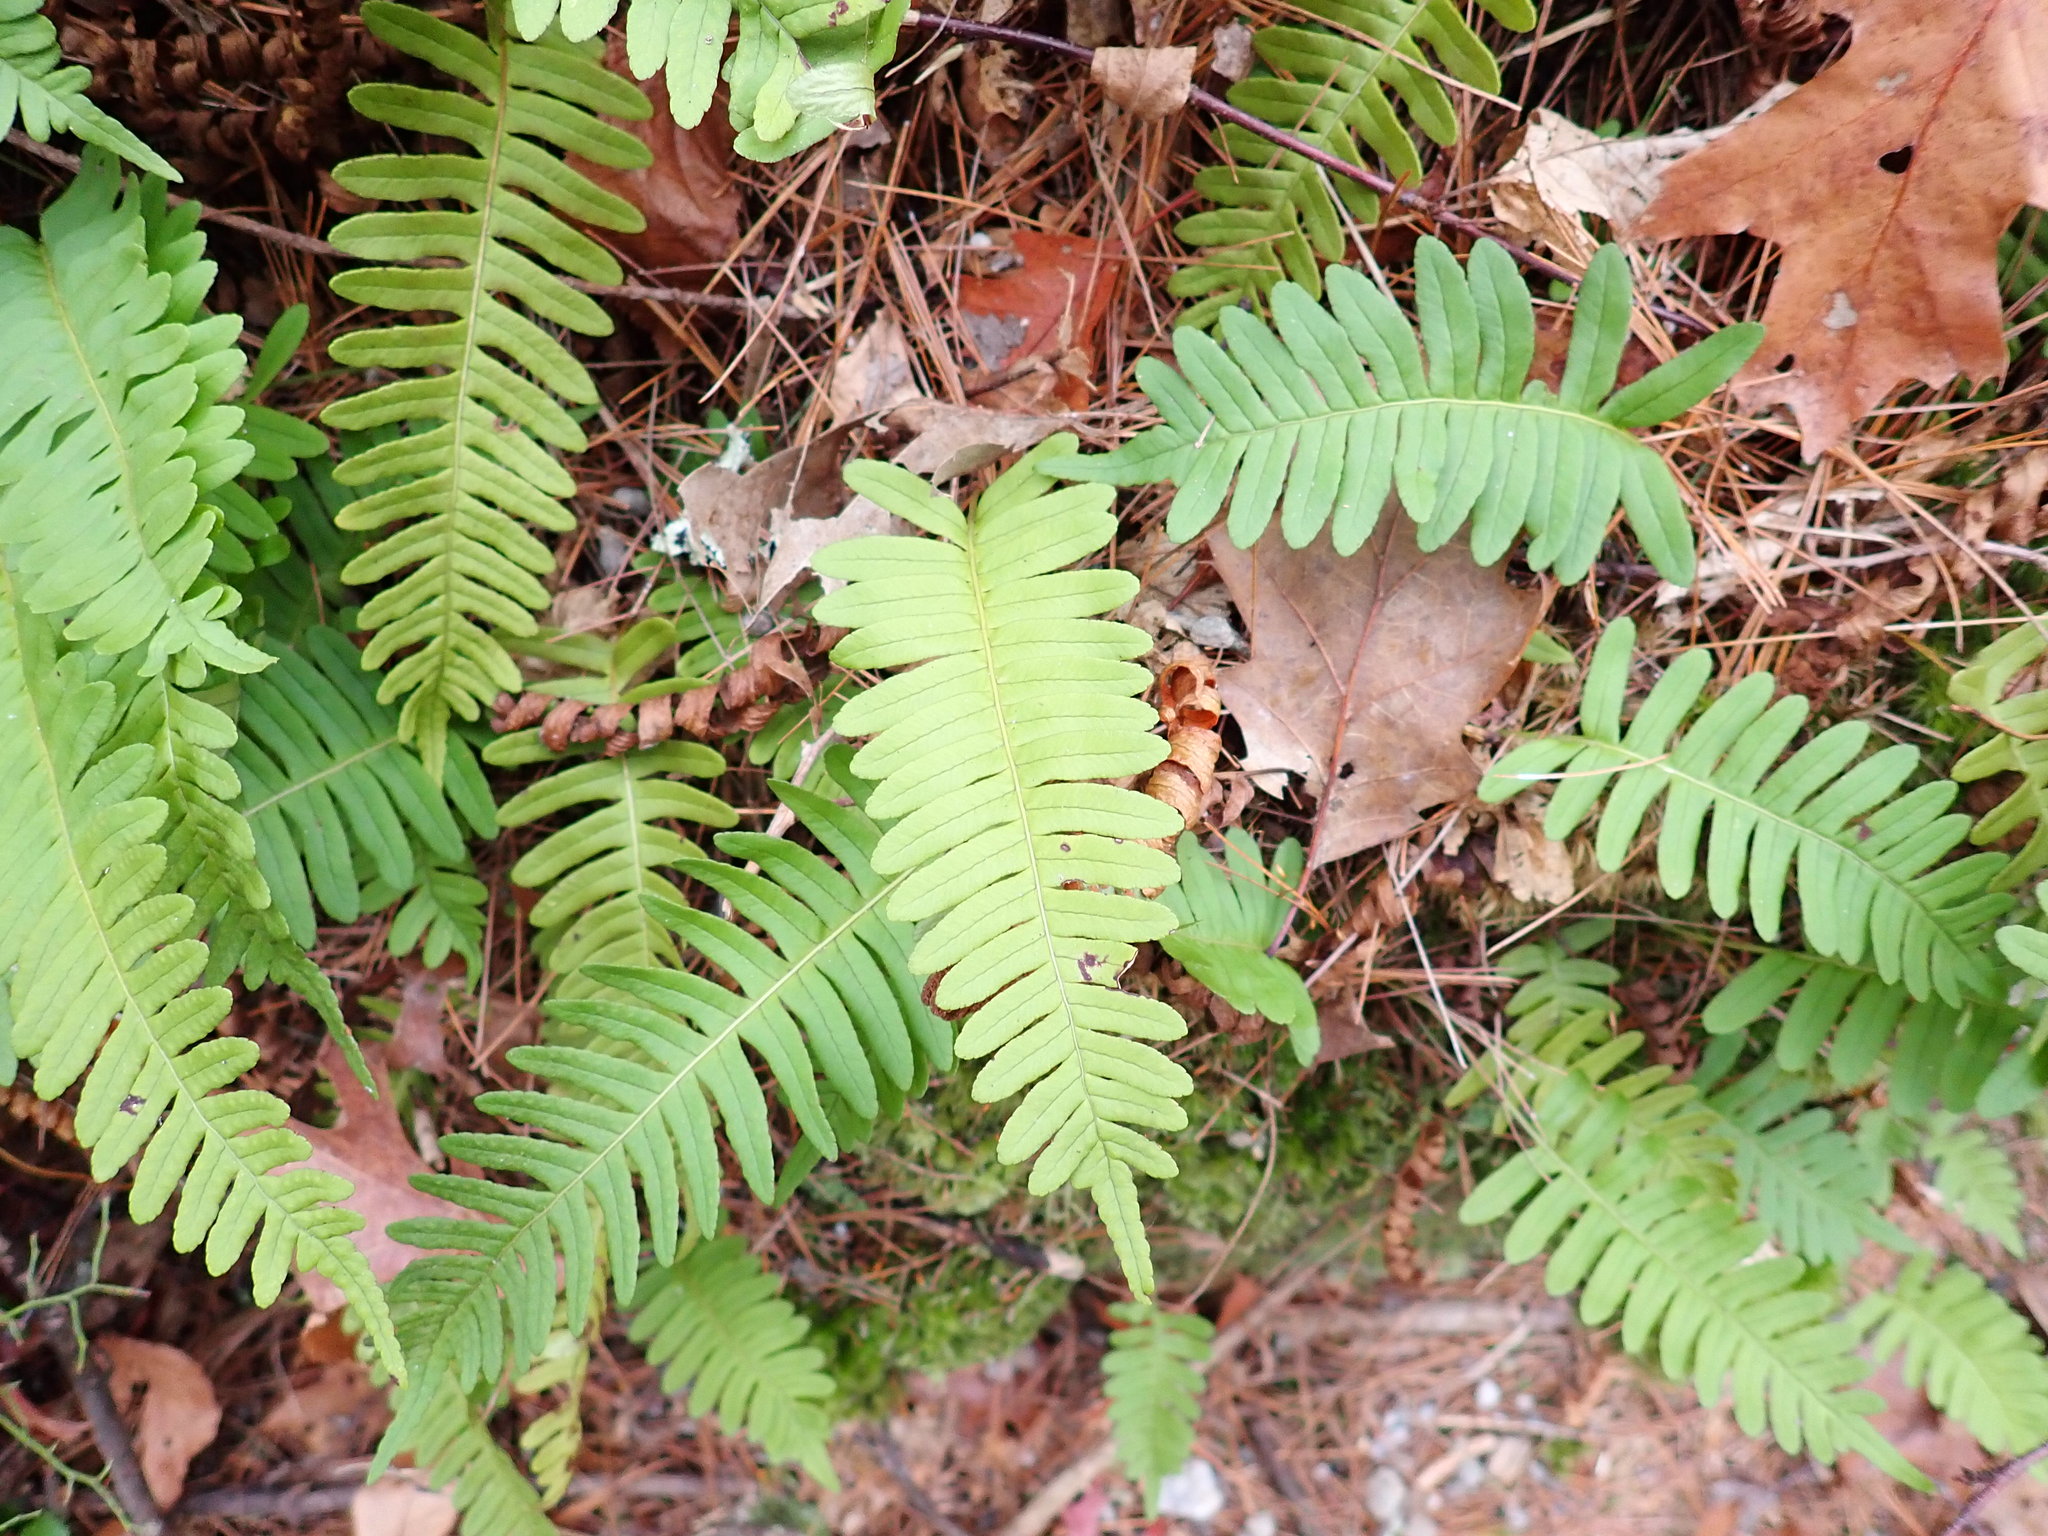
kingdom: Plantae
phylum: Tracheophyta
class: Polypodiopsida
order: Polypodiales
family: Polypodiaceae
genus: Polypodium
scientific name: Polypodium virginianum
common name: American wall fern
